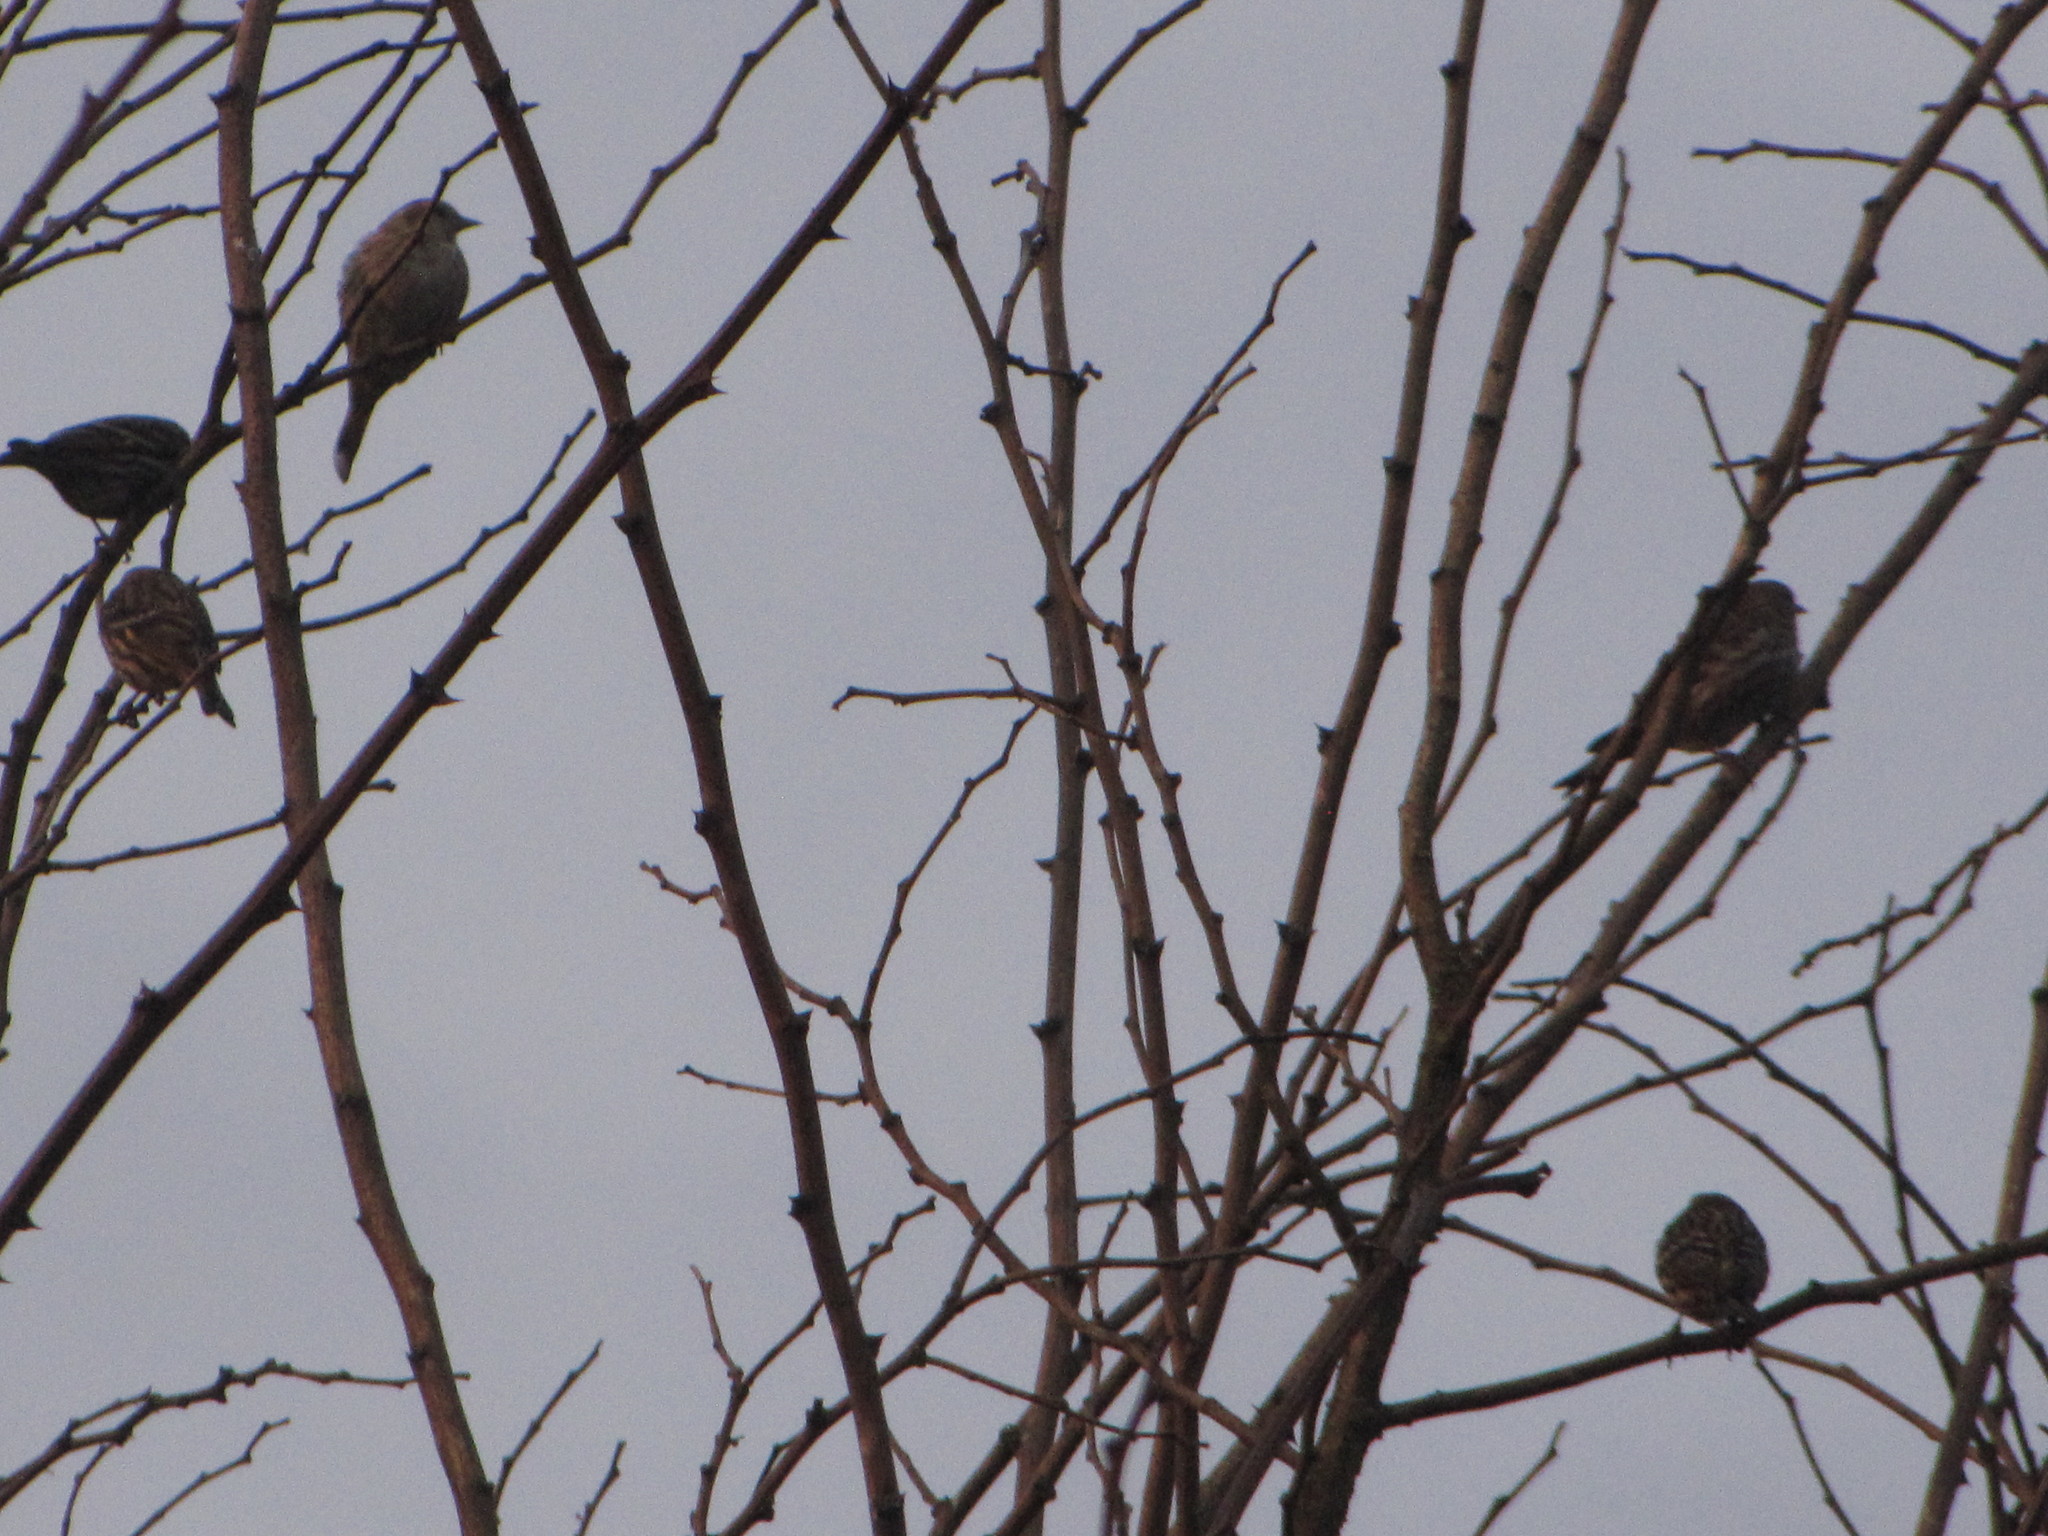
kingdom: Animalia
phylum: Chordata
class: Aves
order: Passeriformes
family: Fringillidae
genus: Spinus
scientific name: Spinus pinus
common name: Pine siskin
